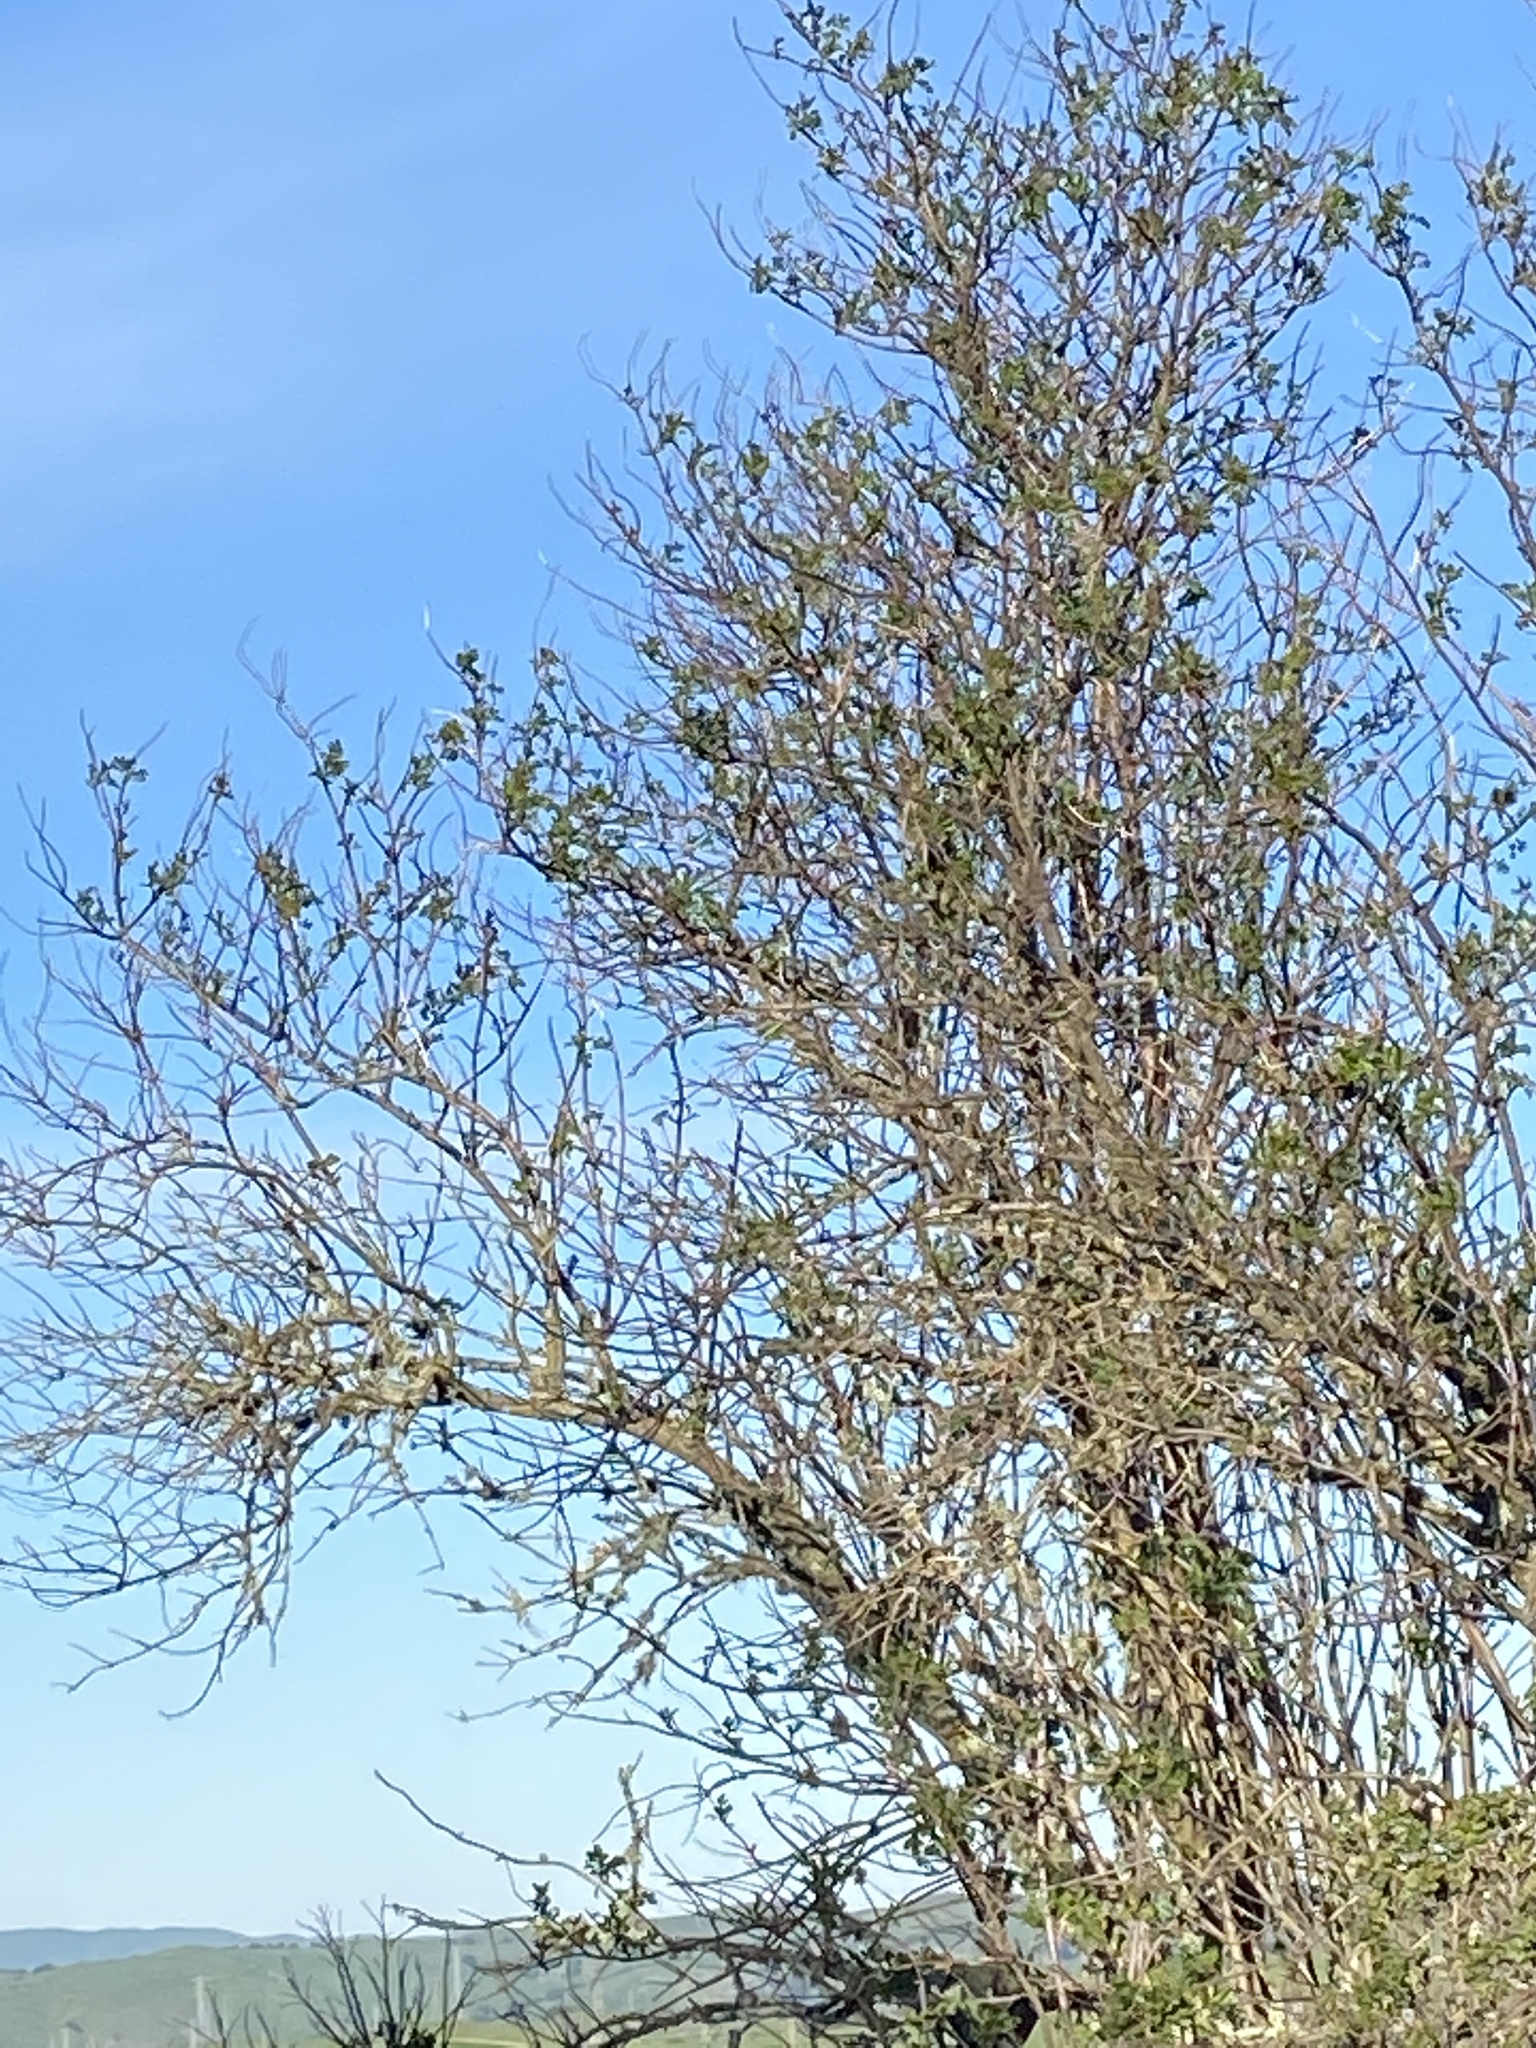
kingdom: Plantae
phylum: Tracheophyta
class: Magnoliopsida
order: Dipsacales
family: Viburnaceae
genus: Sambucus
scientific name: Sambucus cerulea
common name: Blue elder
